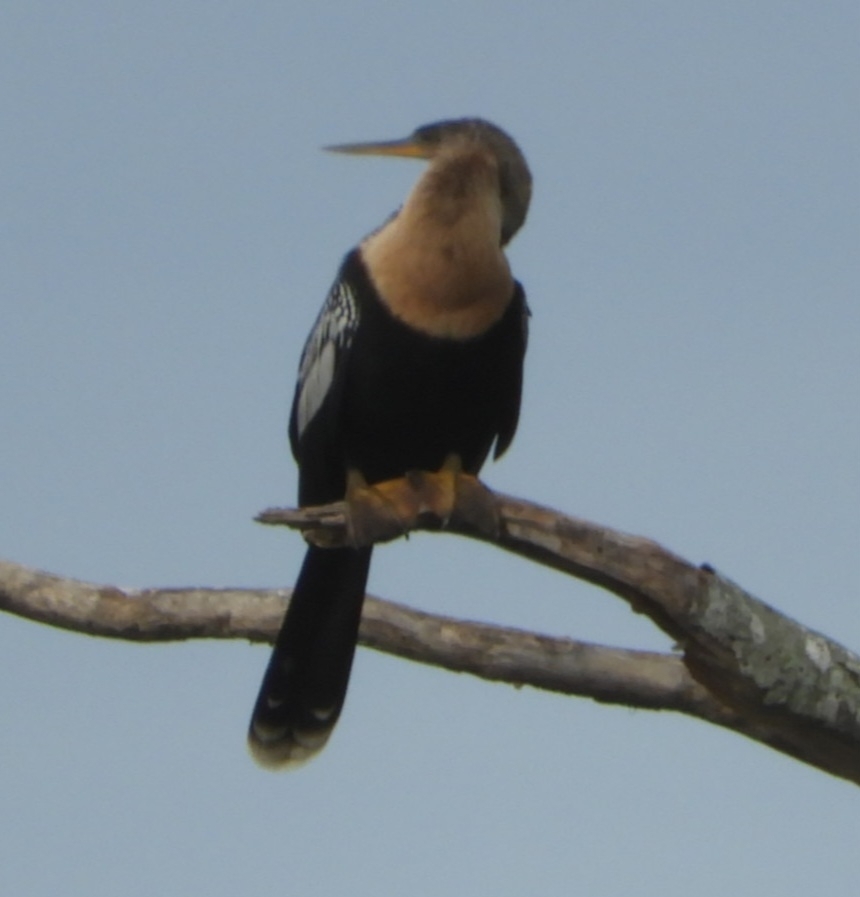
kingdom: Animalia
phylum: Chordata
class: Aves
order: Suliformes
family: Anhingidae
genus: Anhinga
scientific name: Anhinga anhinga
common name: Anhinga
